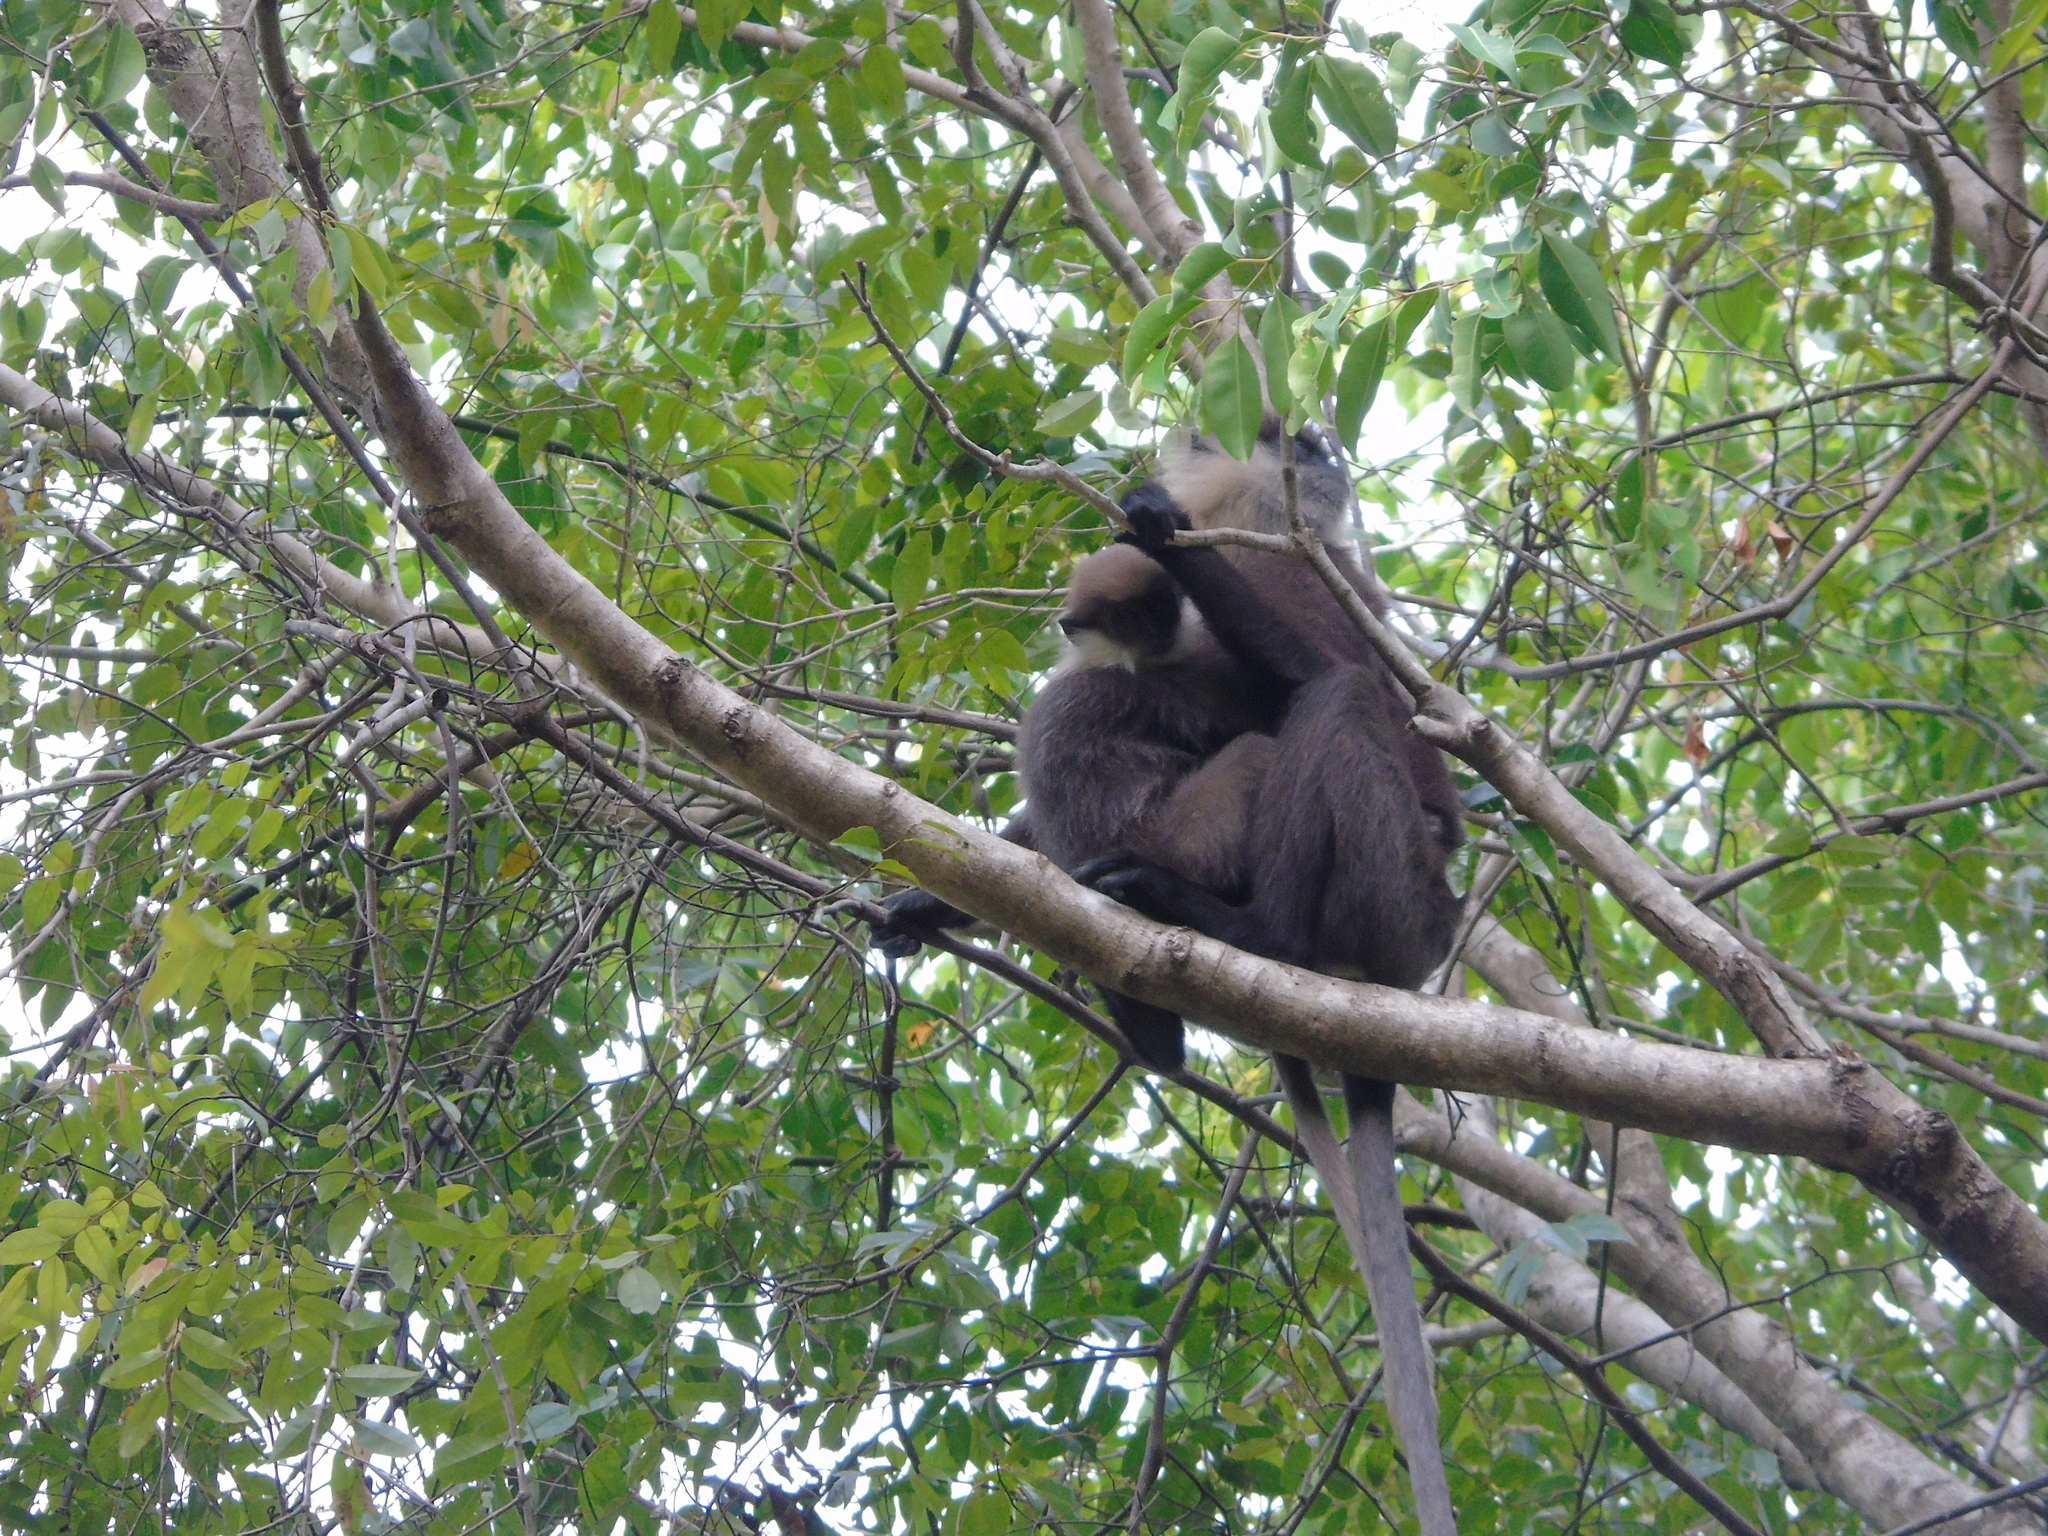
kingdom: Animalia
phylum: Chordata
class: Mammalia
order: Primates
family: Cercopithecidae
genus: Semnopithecus
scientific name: Semnopithecus vetulus
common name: Purple-faced langur
